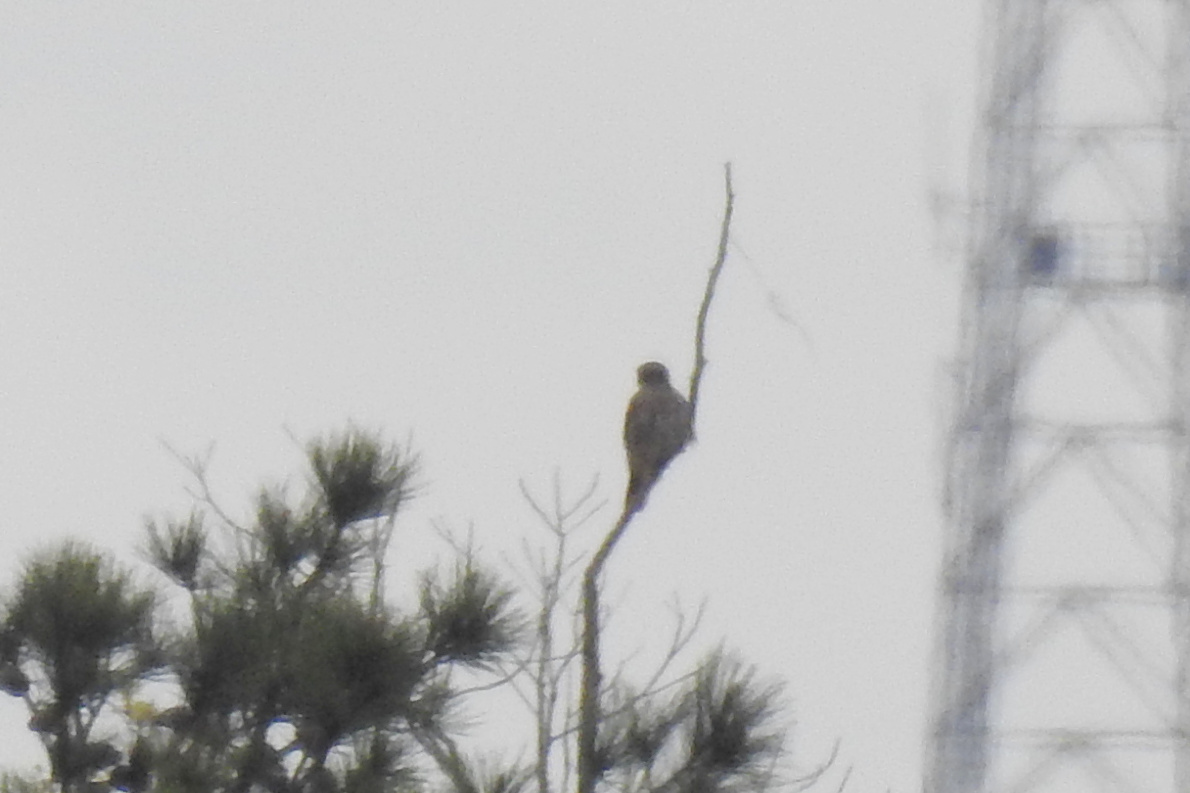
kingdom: Animalia
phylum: Chordata
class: Aves
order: Falconiformes
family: Falconidae
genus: Falco
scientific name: Falco columbarius
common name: Merlin
